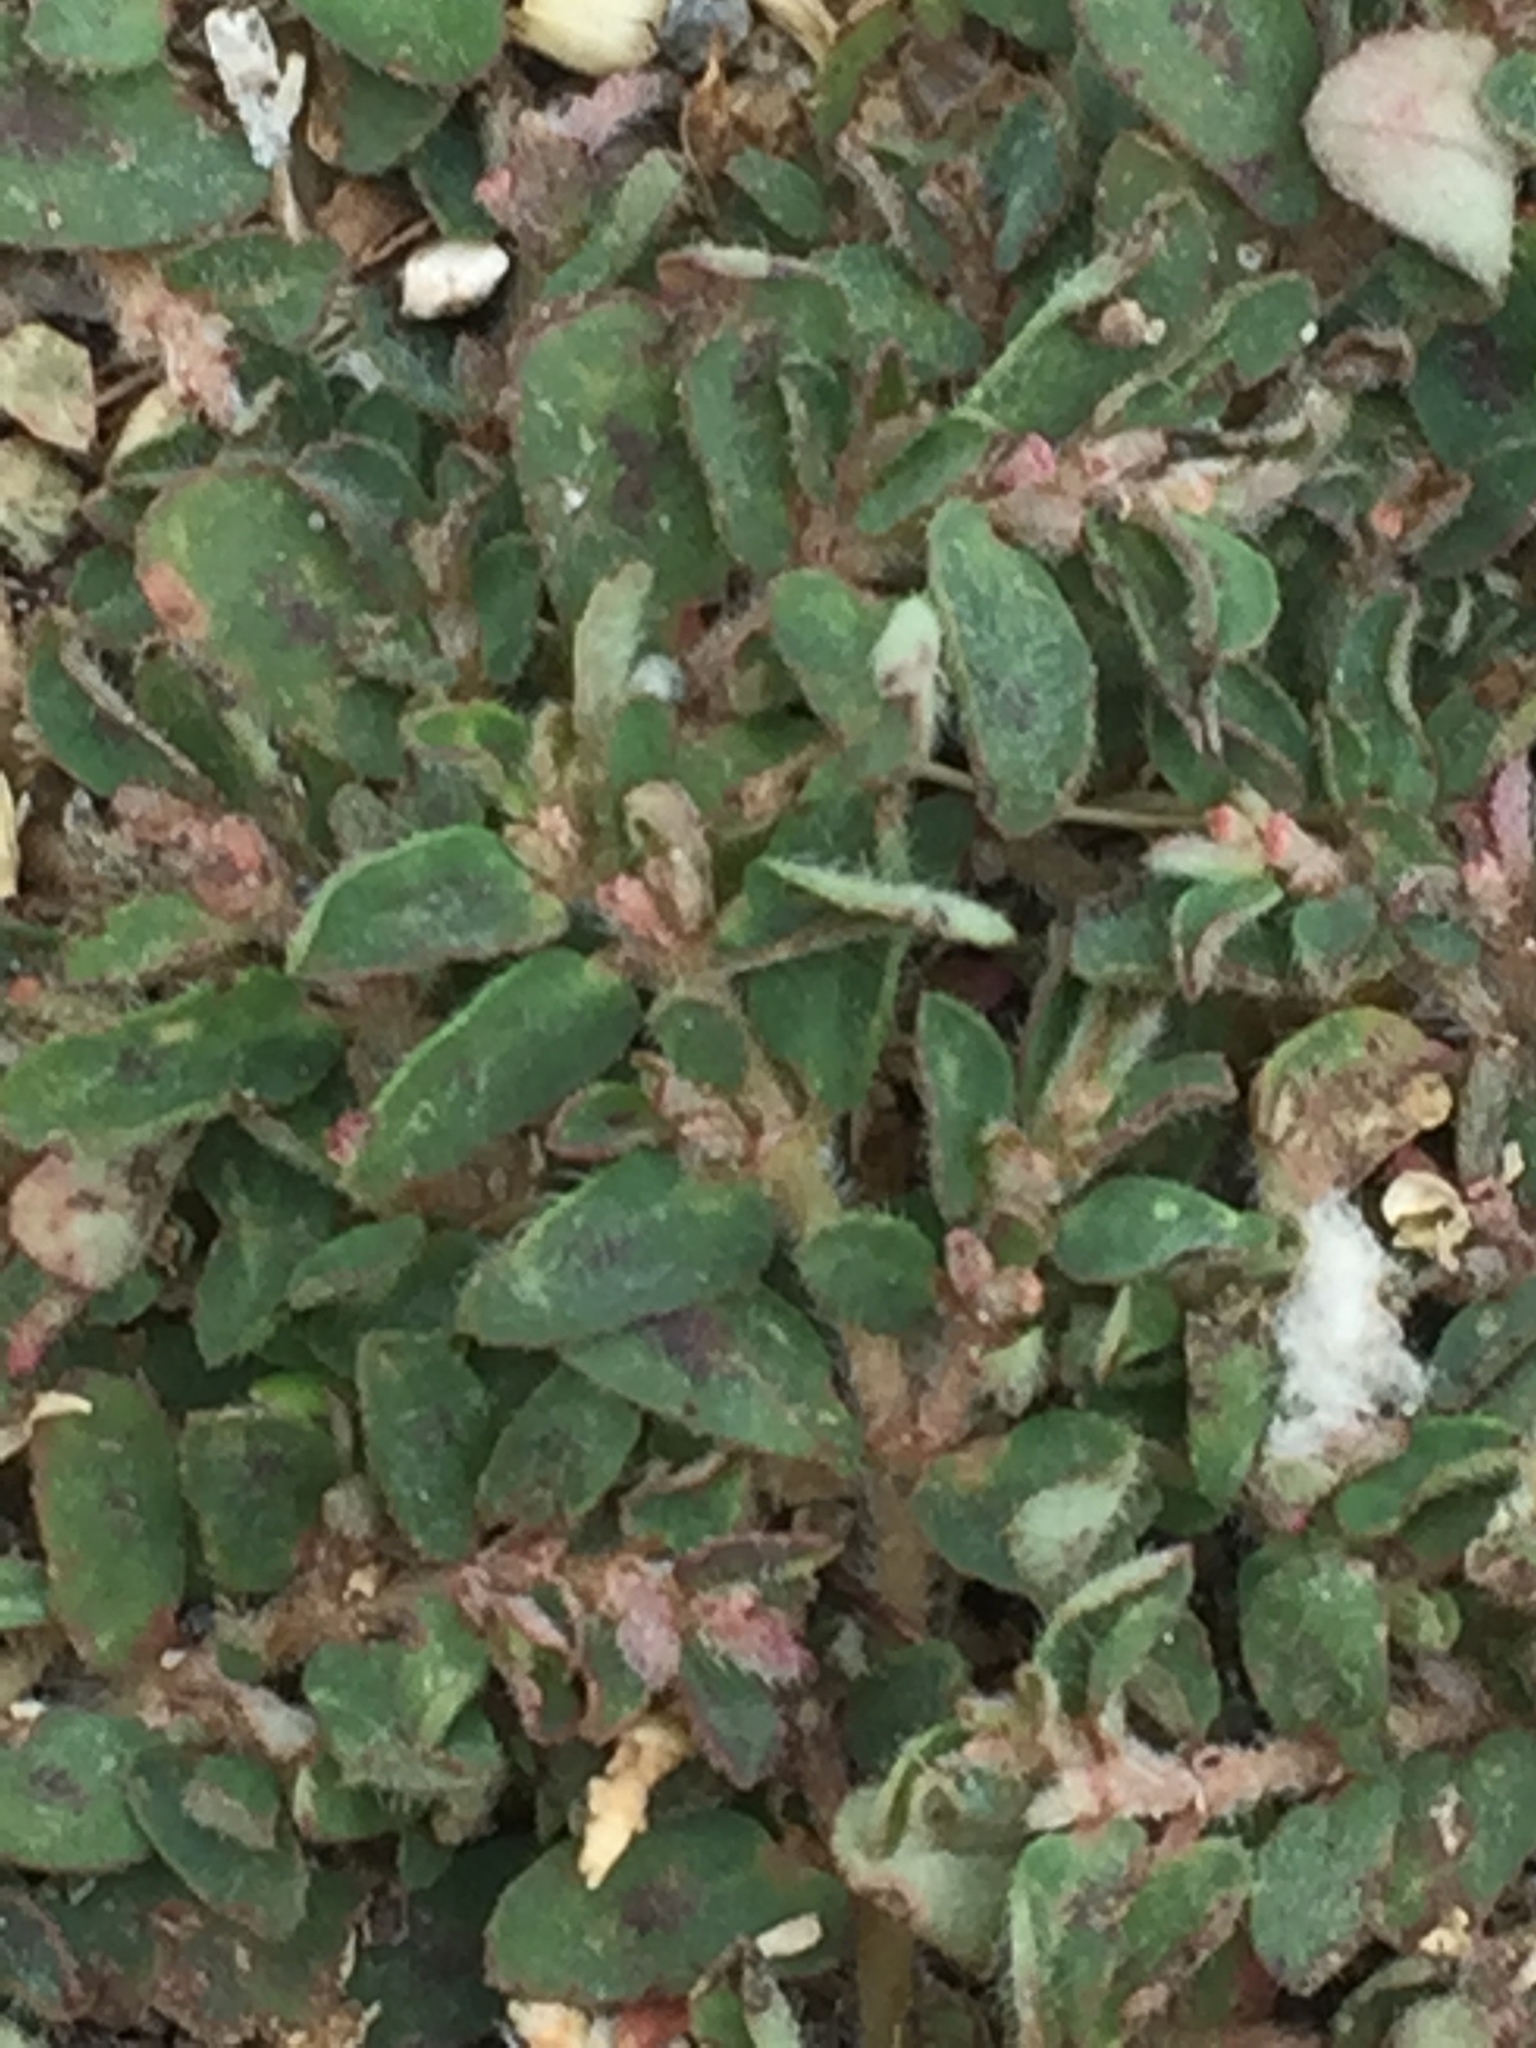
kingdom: Plantae
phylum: Tracheophyta
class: Magnoliopsida
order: Malpighiales
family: Euphorbiaceae
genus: Euphorbia
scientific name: Euphorbia maculata
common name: Spotted spurge
